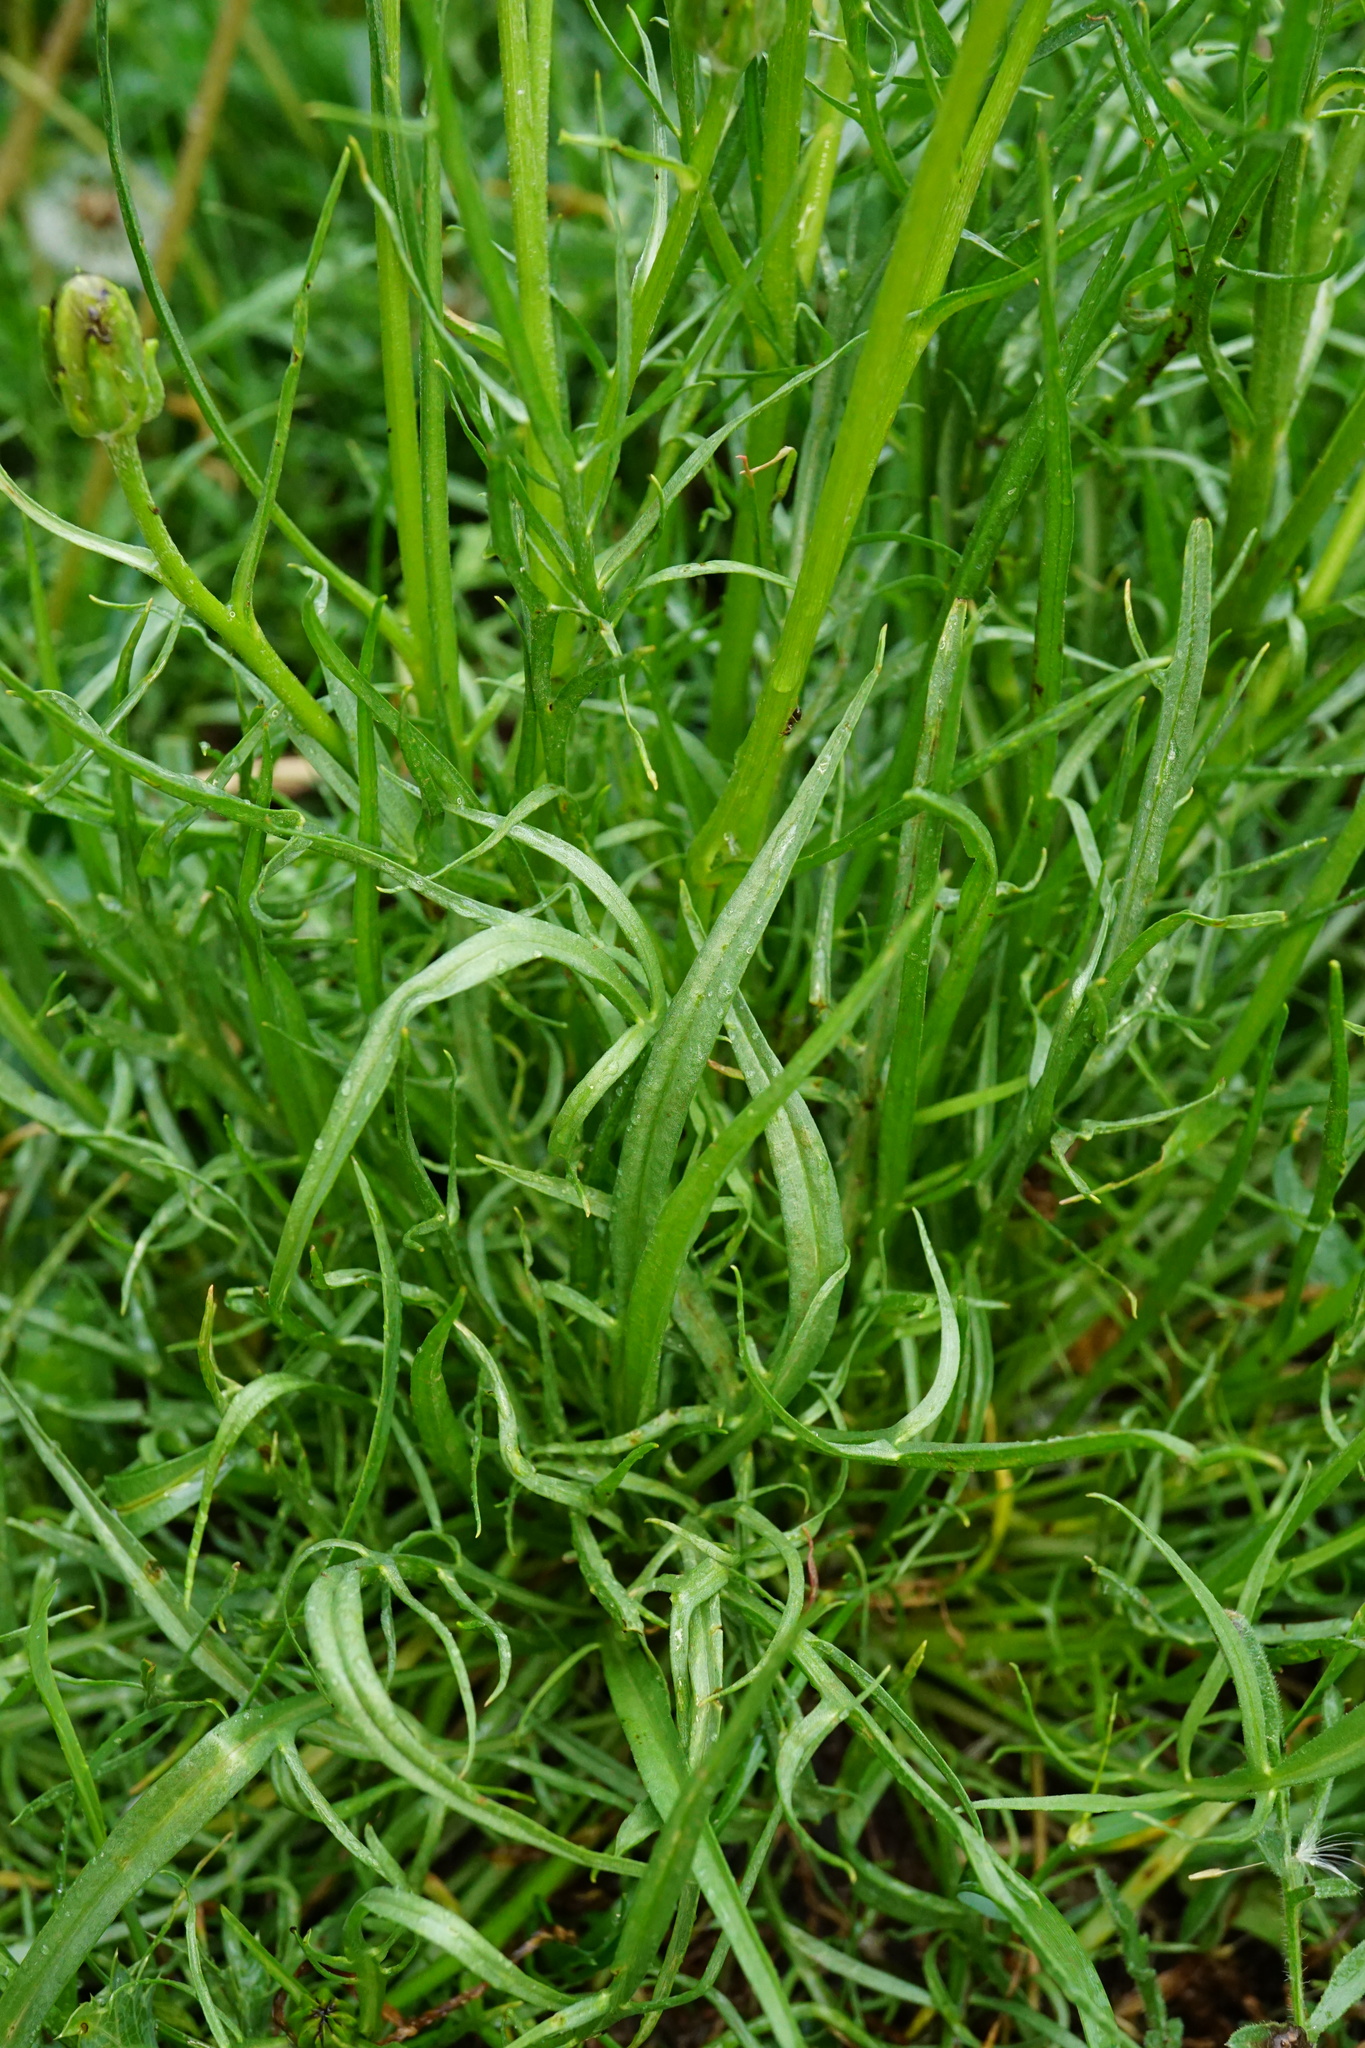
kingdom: Plantae
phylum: Tracheophyta
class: Magnoliopsida
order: Asterales
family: Asteraceae
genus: Scorzonera
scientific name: Scorzonera cana
